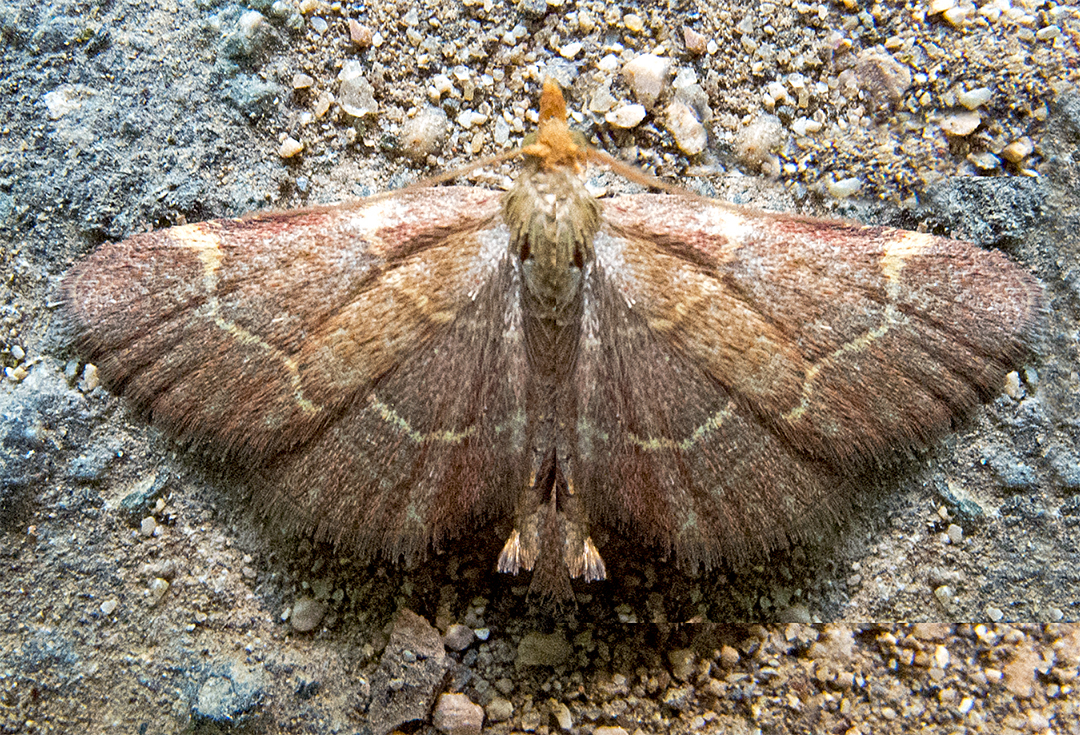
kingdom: Animalia
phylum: Arthropoda
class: Insecta
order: Lepidoptera
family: Pyralidae
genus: Herculia
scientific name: Herculia rubidalis
